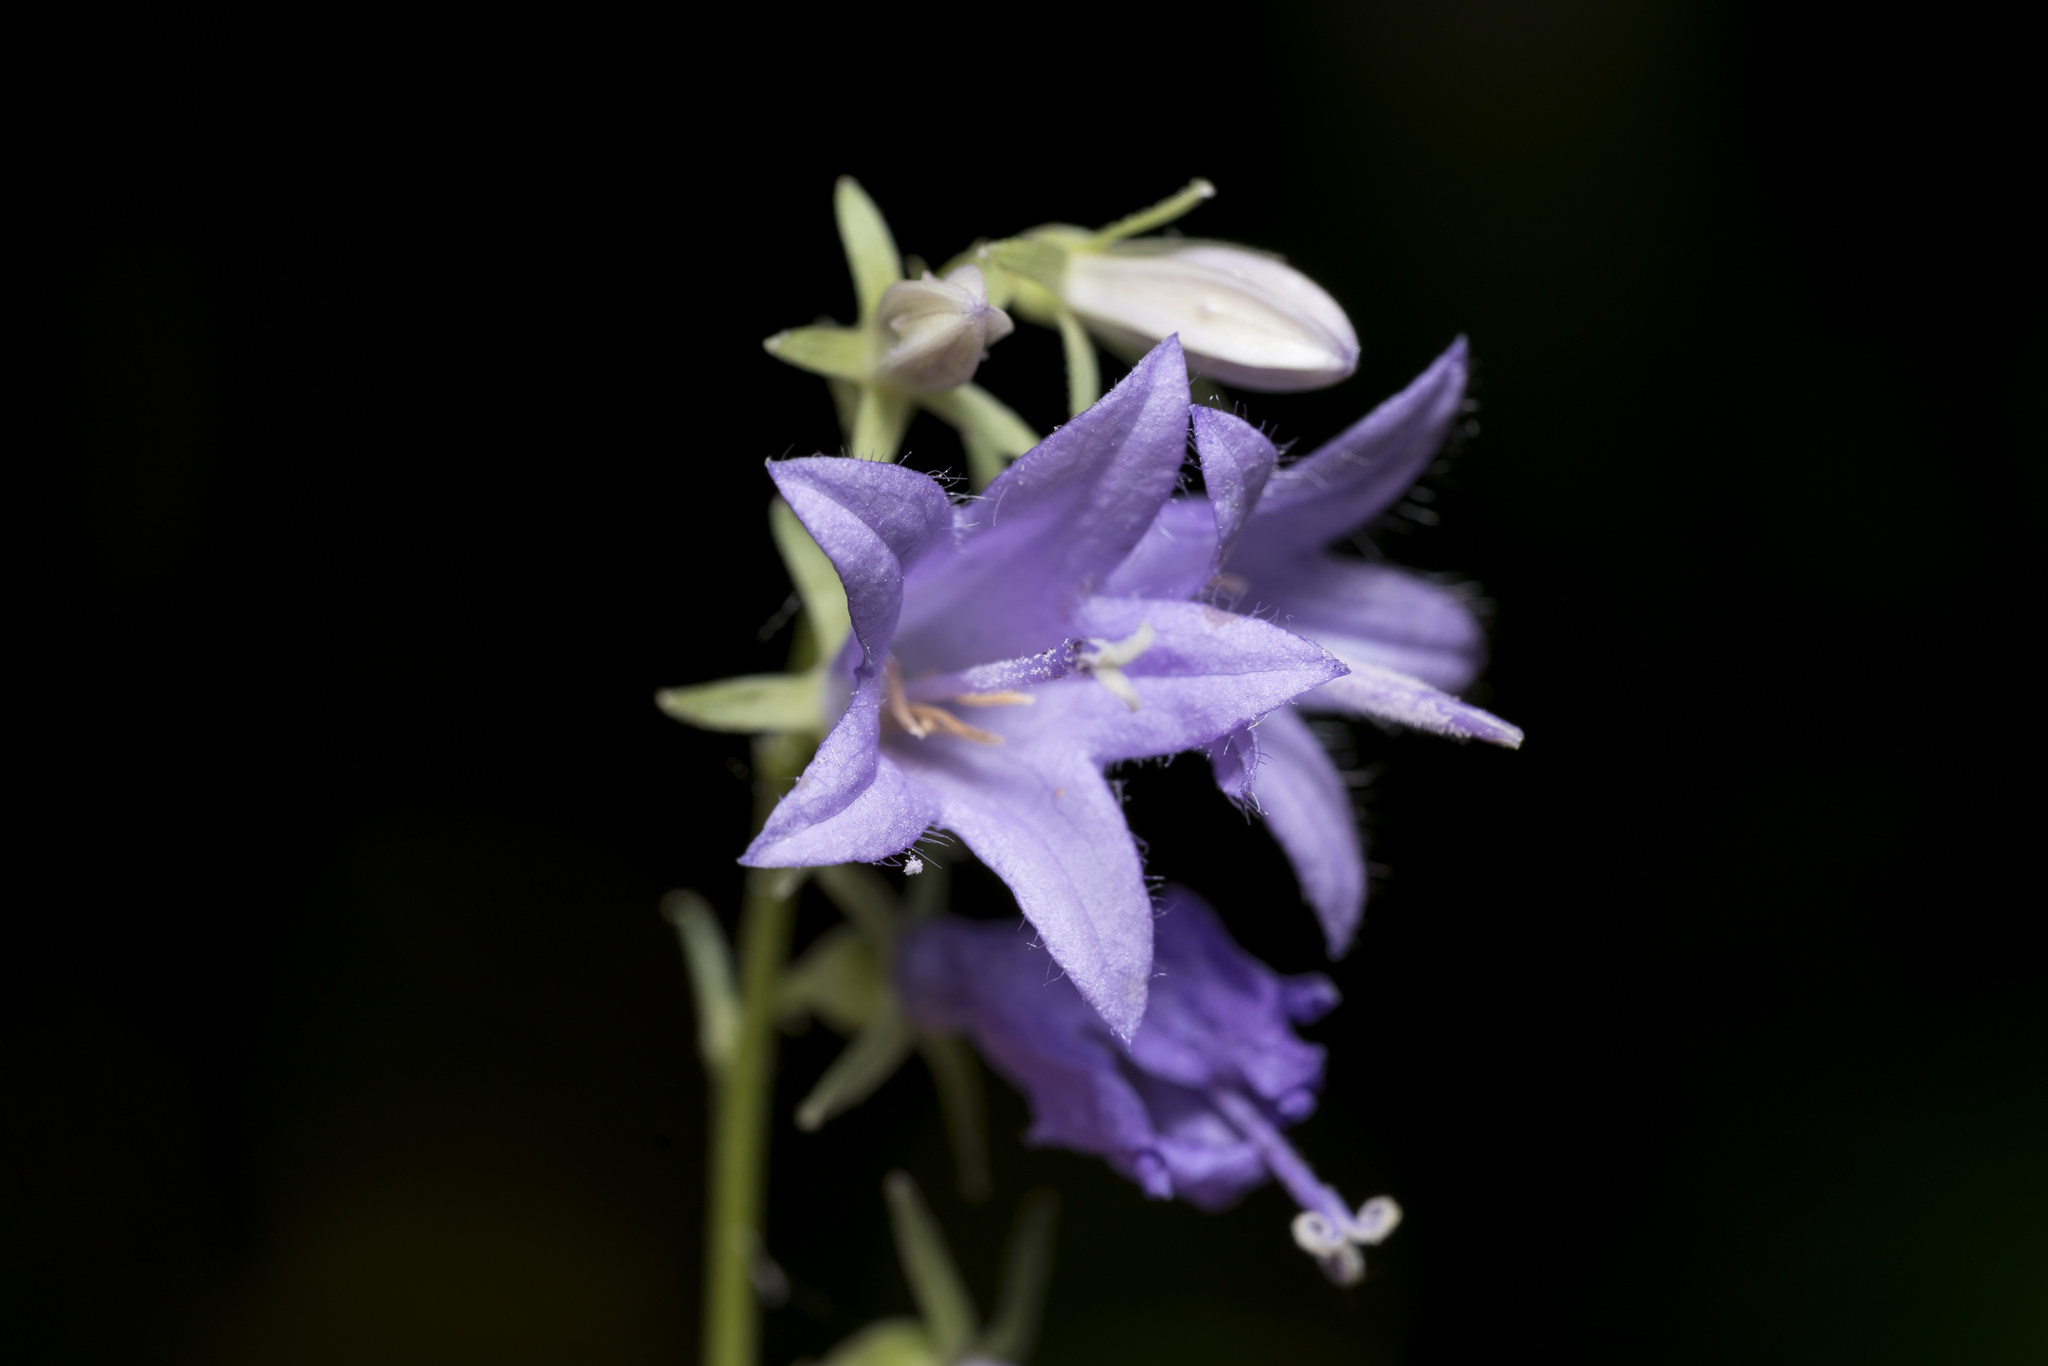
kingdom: Plantae
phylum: Tracheophyta
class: Magnoliopsida
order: Asterales
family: Campanulaceae
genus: Campanula
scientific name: Campanula rapunculoides
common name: Creeping bellflower
